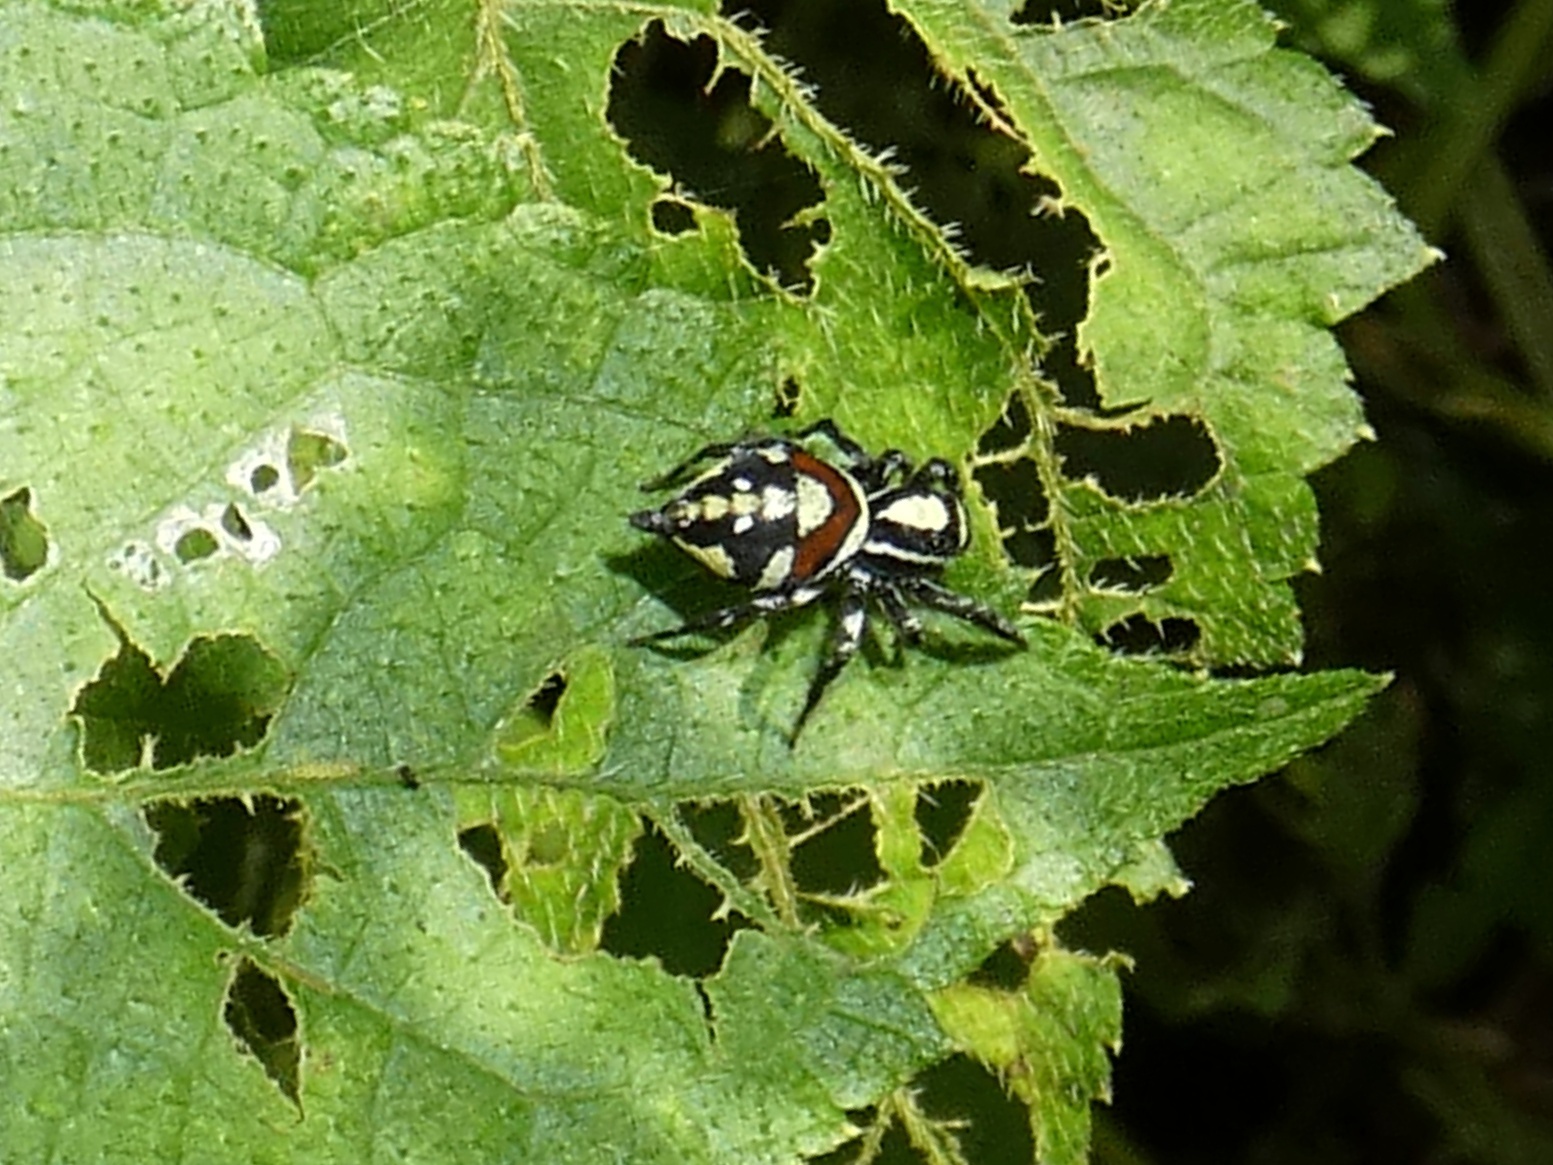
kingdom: Animalia
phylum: Arthropoda
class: Arachnida
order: Araneae
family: Salticidae
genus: Nycerella
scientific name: Nycerella donaldi
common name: Jumping spiders
